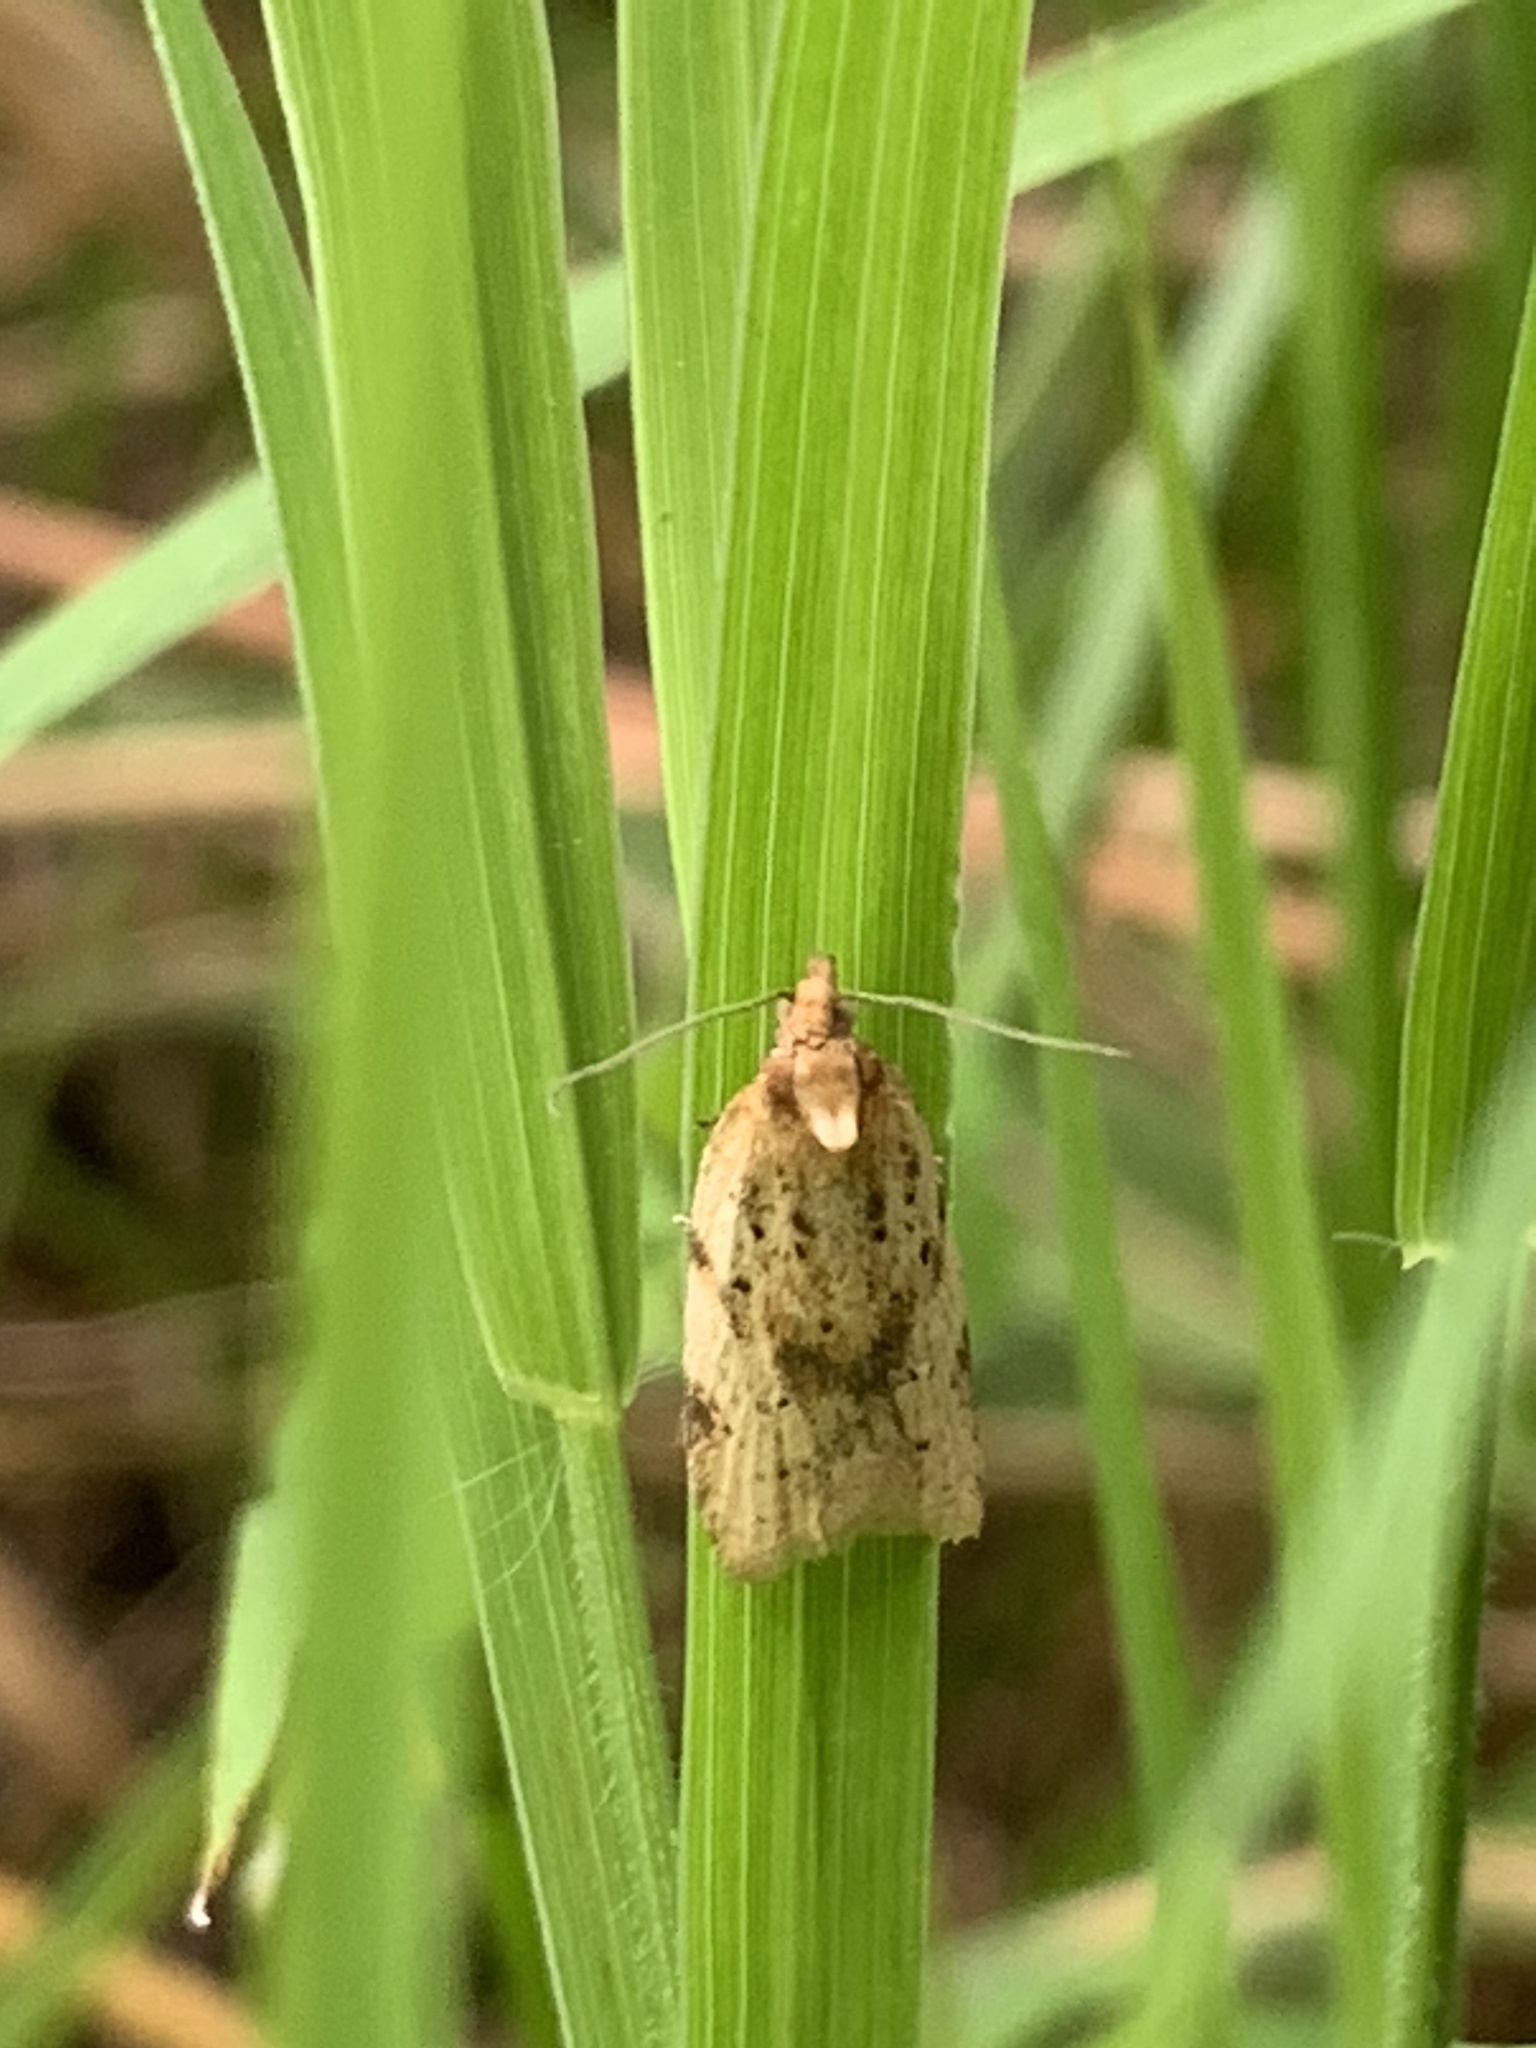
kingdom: Animalia
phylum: Arthropoda
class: Insecta
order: Lepidoptera
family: Tortricidae
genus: Clepsis
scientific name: Clepsis
